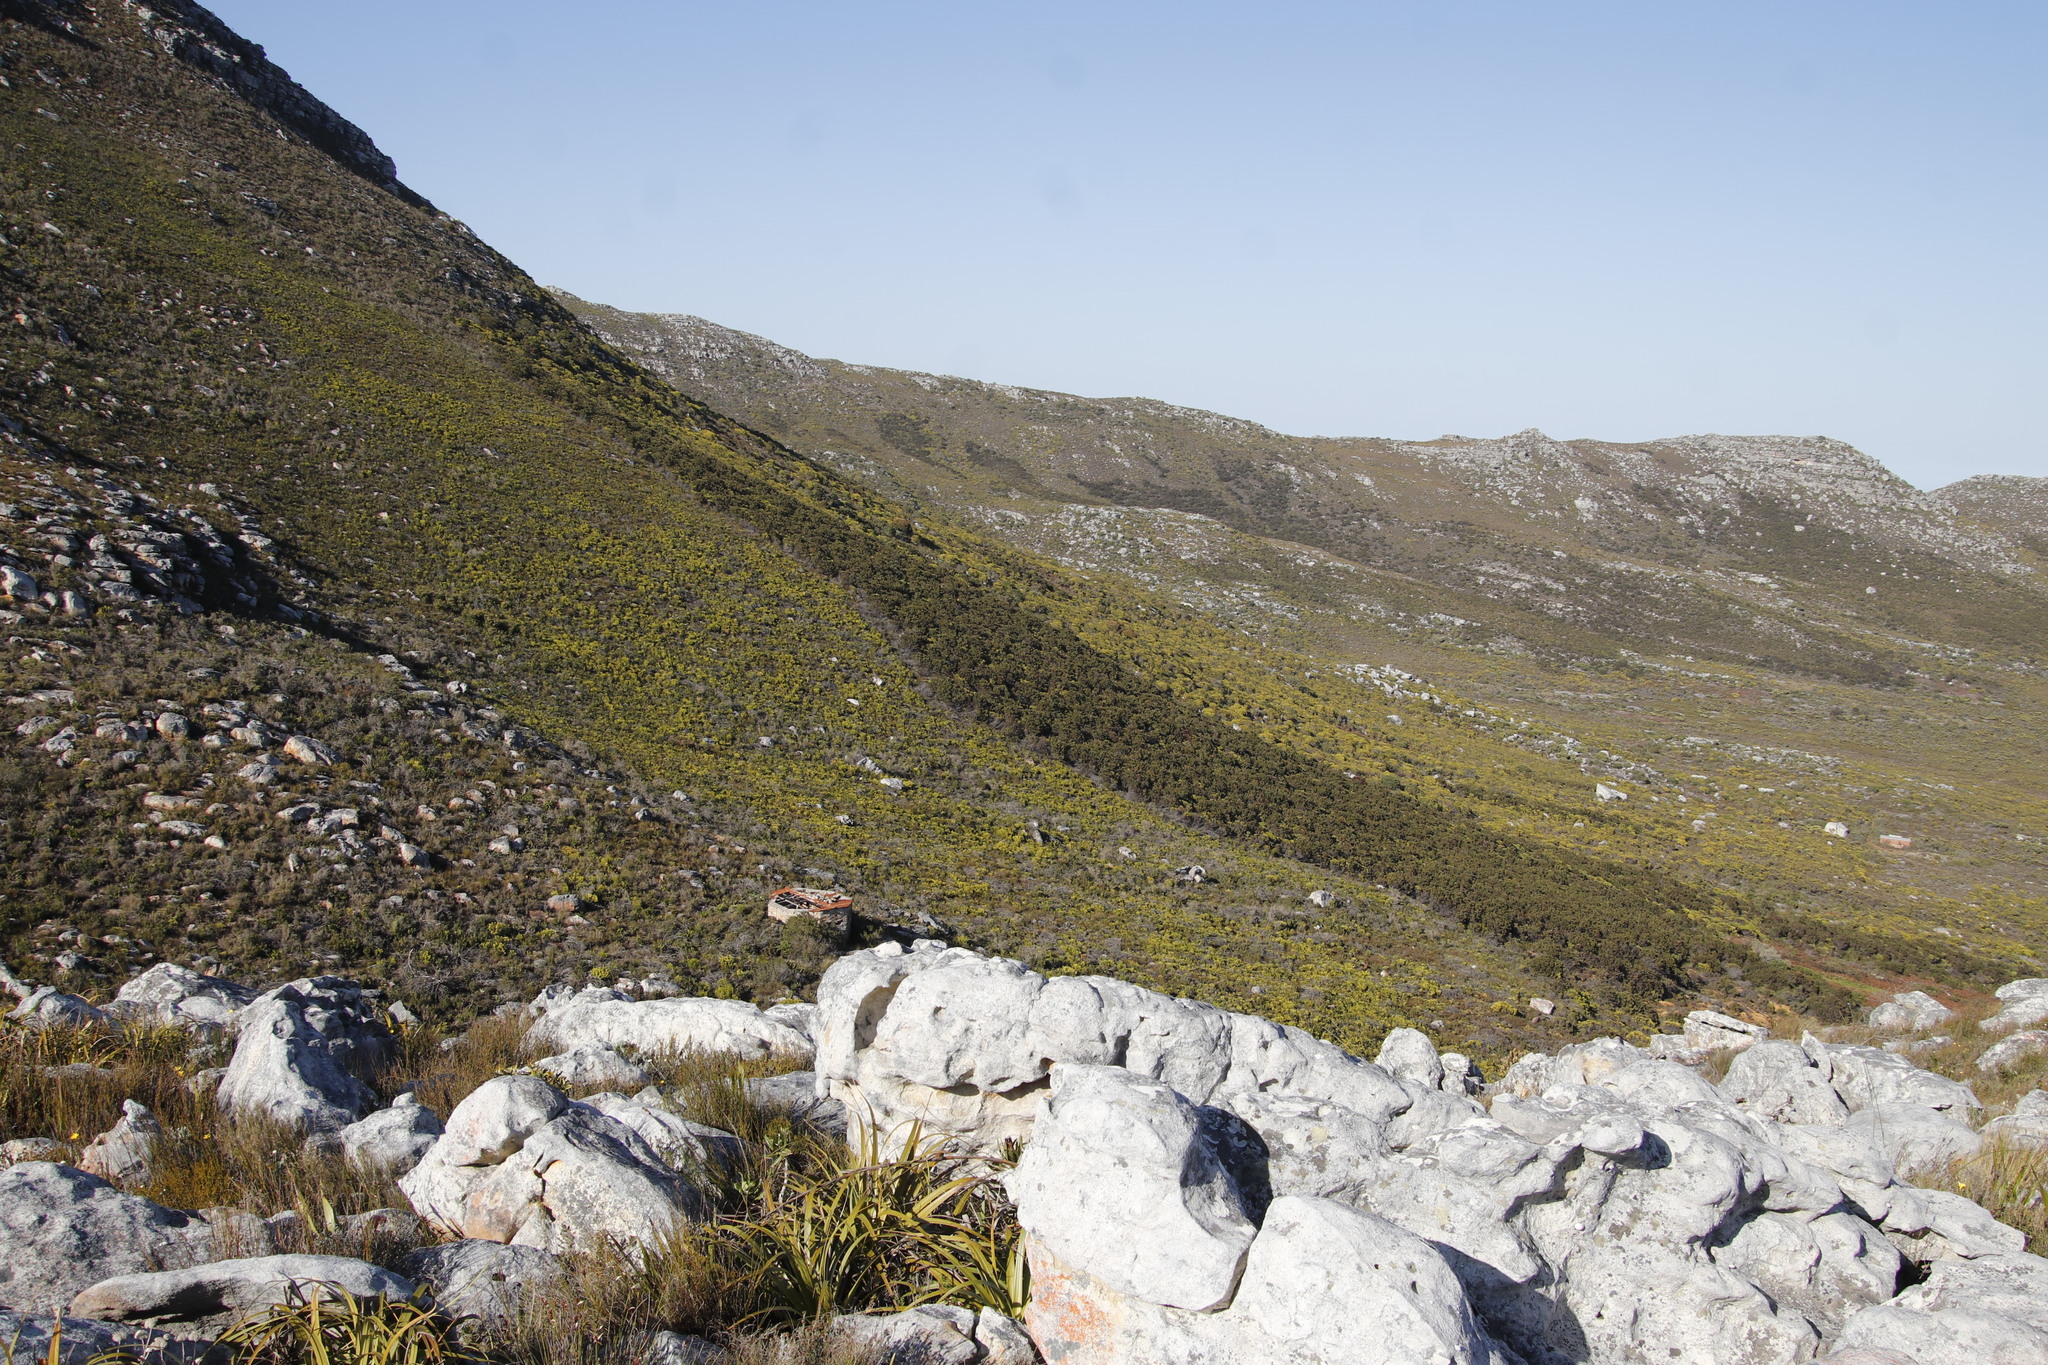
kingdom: Plantae
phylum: Tracheophyta
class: Magnoliopsida
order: Proteales
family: Proteaceae
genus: Protea
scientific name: Protea lepidocarpodendron
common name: Black-bearded protea
